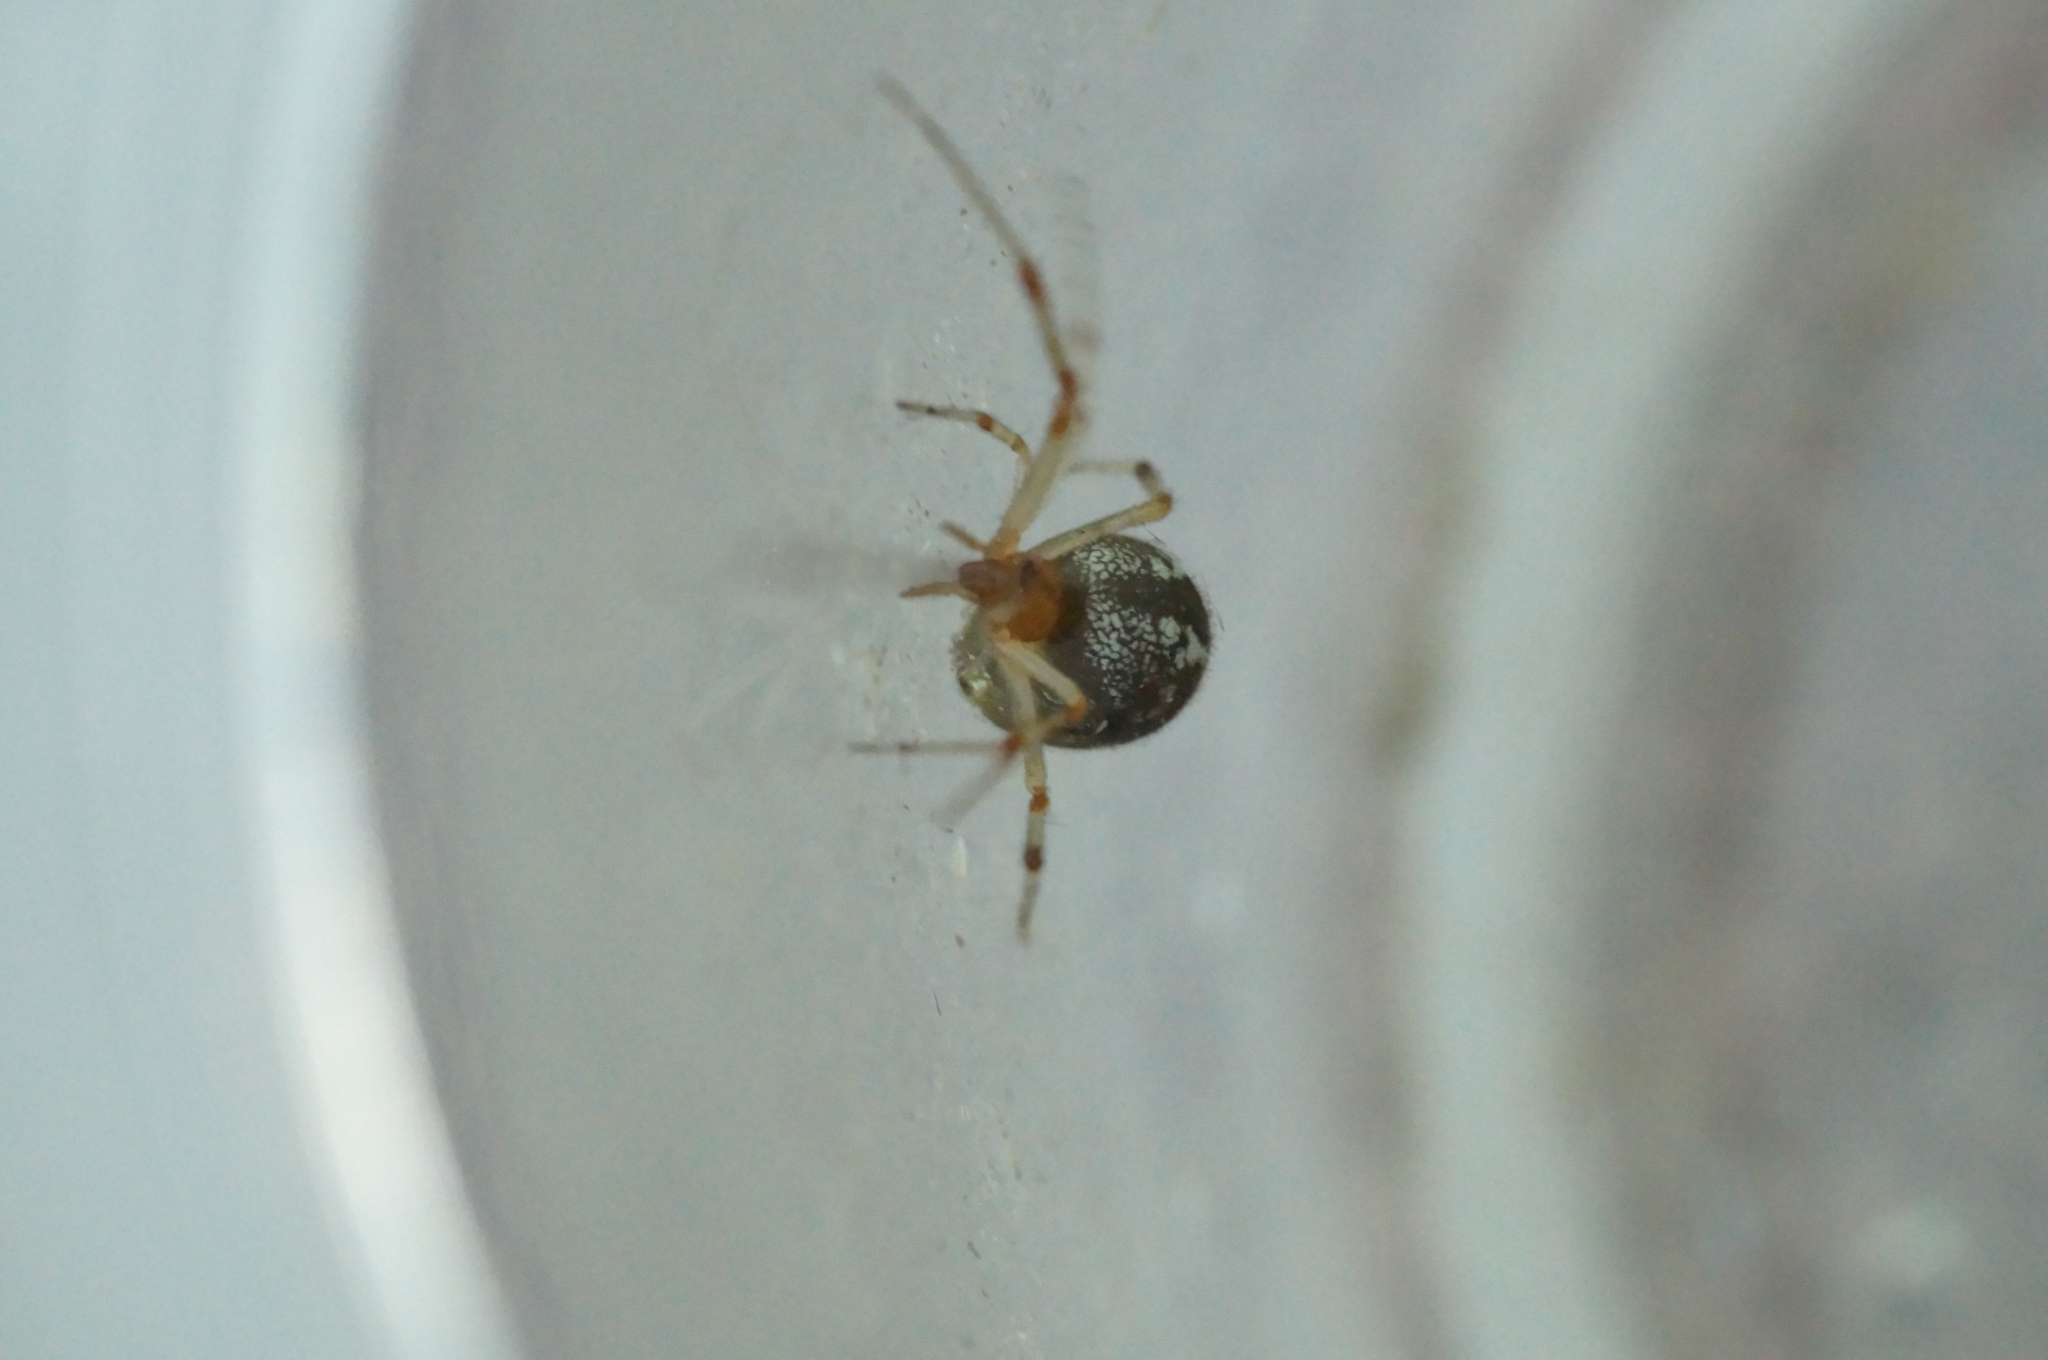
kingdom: Animalia
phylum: Arthropoda
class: Arachnida
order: Araneae
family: Theridiidae
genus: Parasteatoda
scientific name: Parasteatoda simulans
